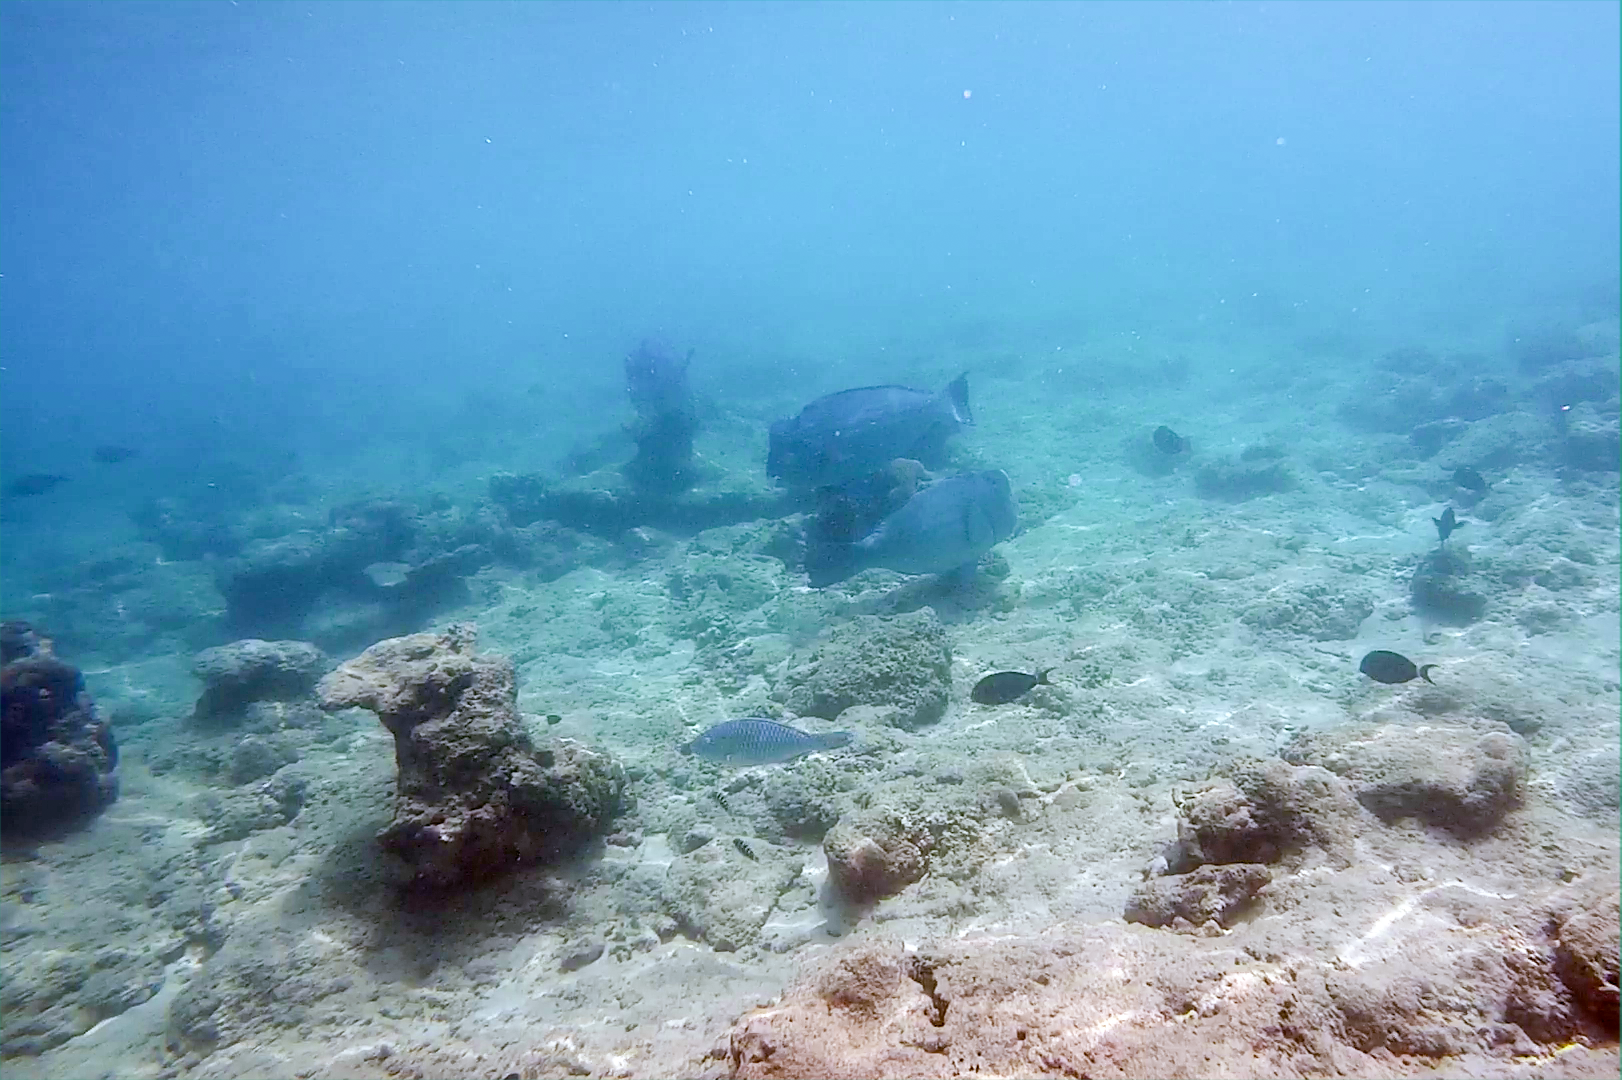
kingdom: Animalia
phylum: Chordata
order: Perciformes
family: Scaridae
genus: Bolbometopon
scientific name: Bolbometopon muricatum
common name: Humphead parrotfish
